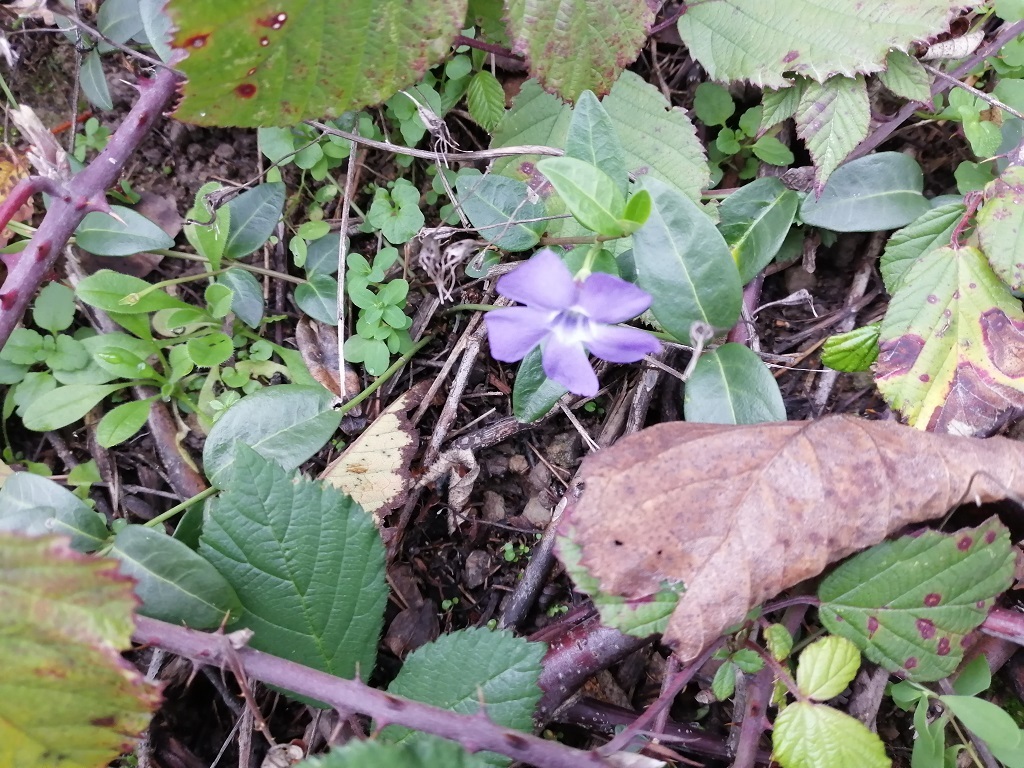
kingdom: Plantae
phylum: Tracheophyta
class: Magnoliopsida
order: Gentianales
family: Apocynaceae
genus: Vinca
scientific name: Vinca minor
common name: Lesser periwinkle
